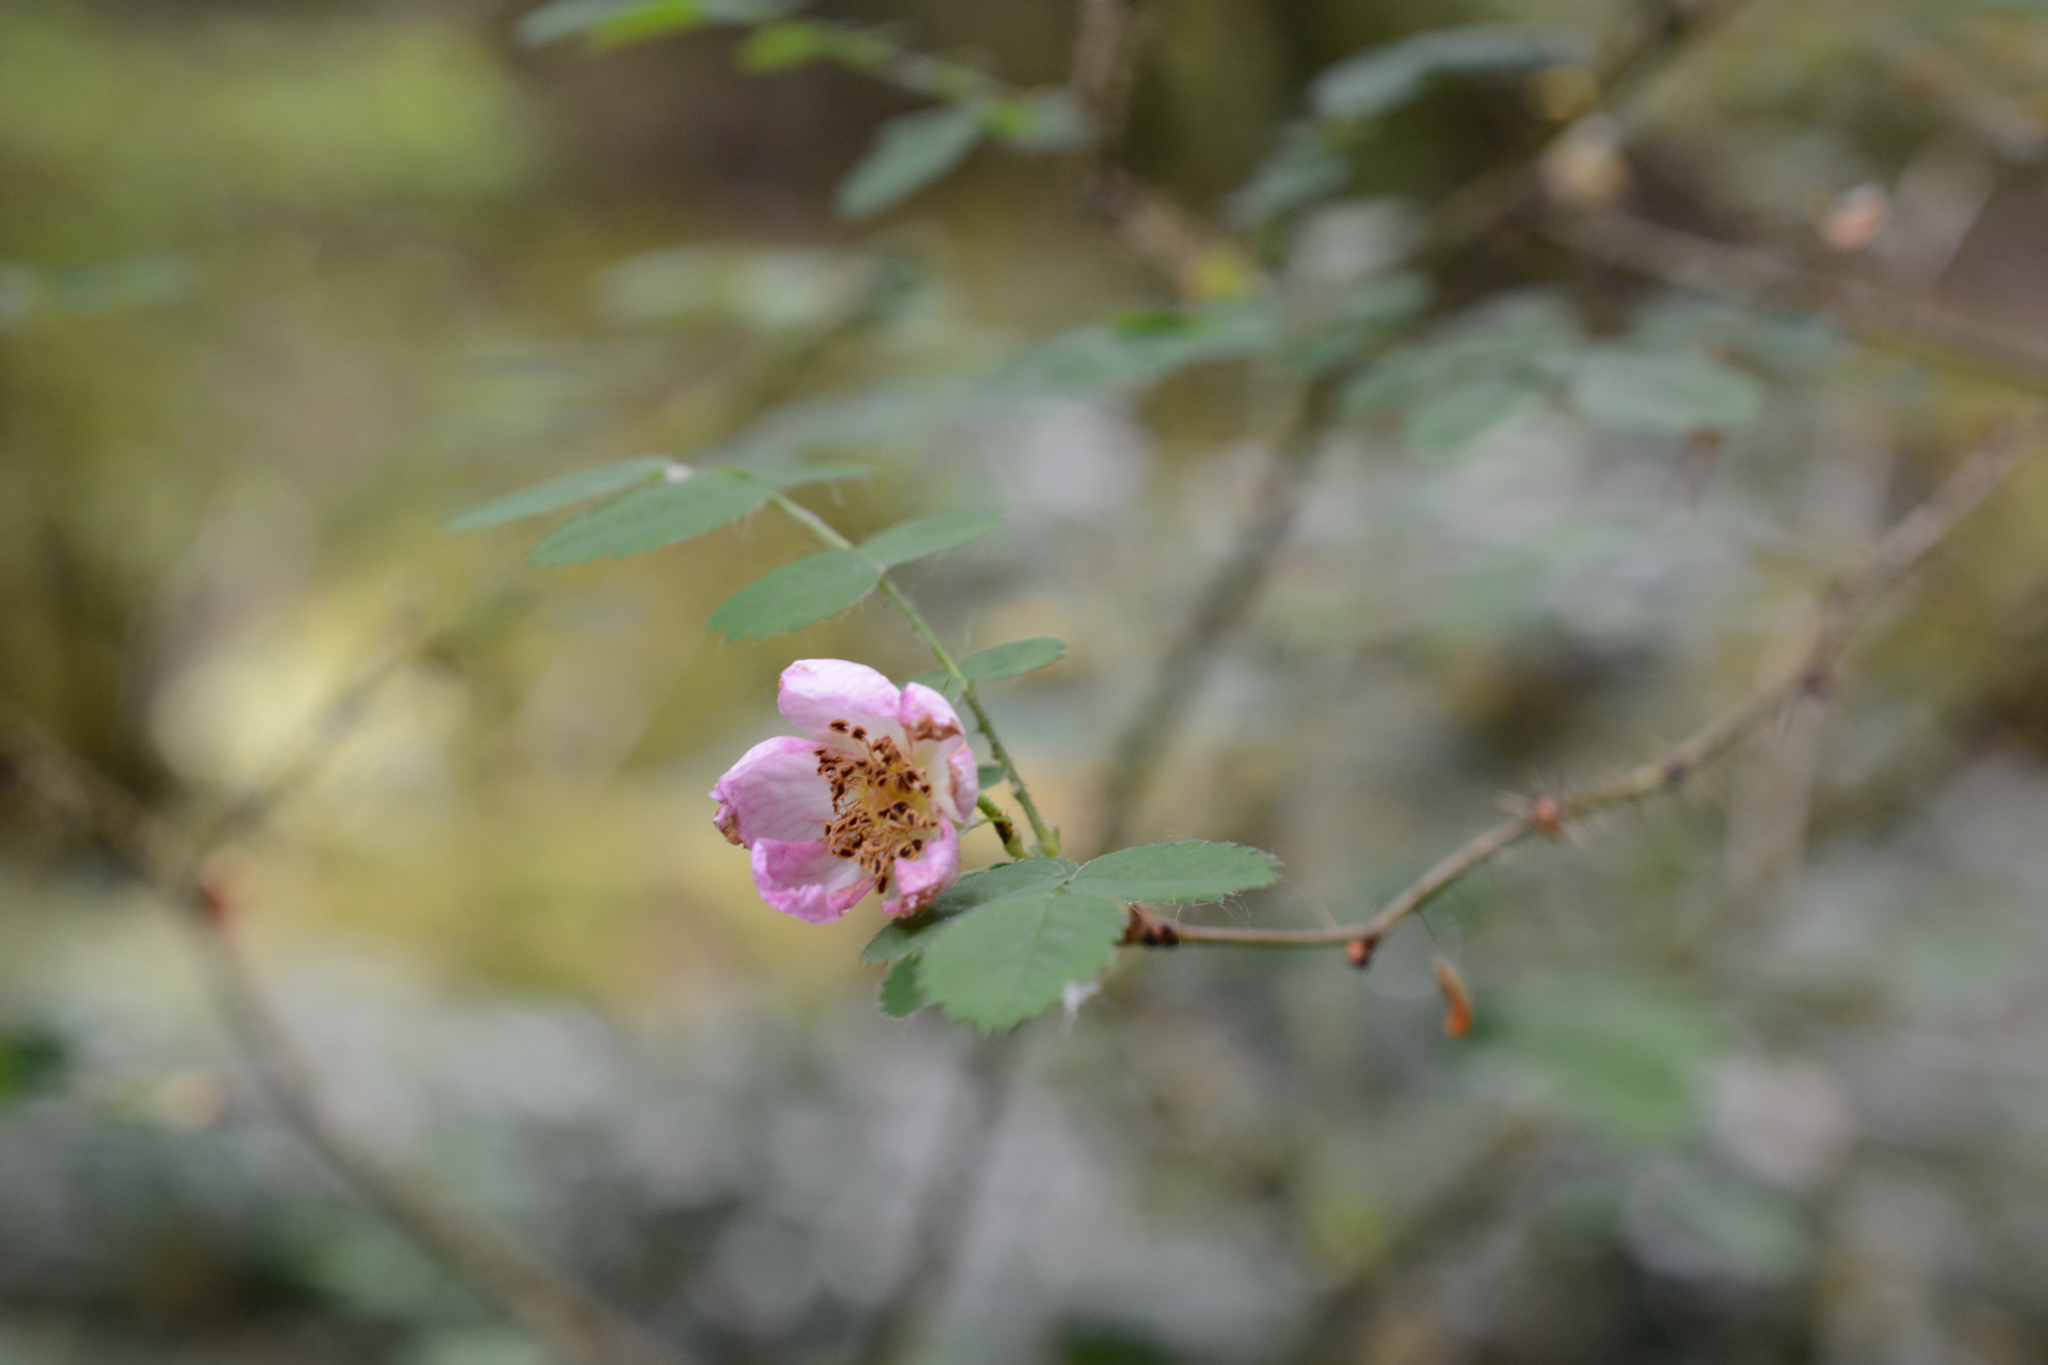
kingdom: Plantae
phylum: Tracheophyta
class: Magnoliopsida
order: Rosales
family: Rosaceae
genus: Rosa
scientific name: Rosa gymnocarpa
